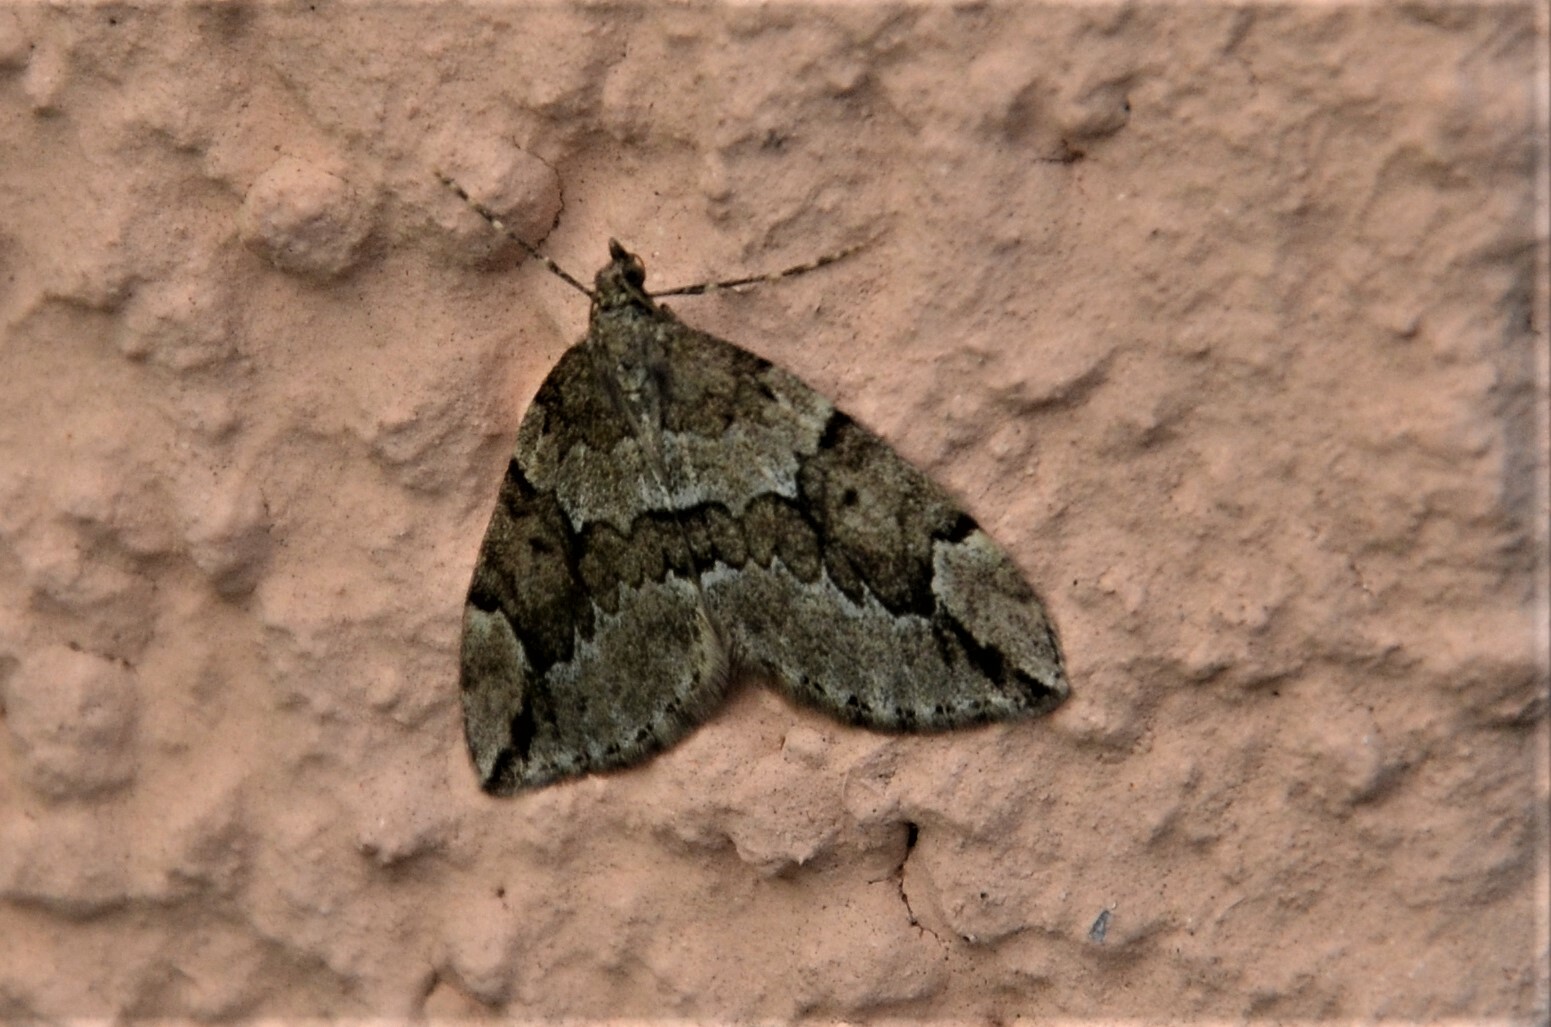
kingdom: Animalia
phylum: Arthropoda
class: Insecta
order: Lepidoptera
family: Geometridae
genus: Thera
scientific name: Thera juniperata
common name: Juniper carpet
